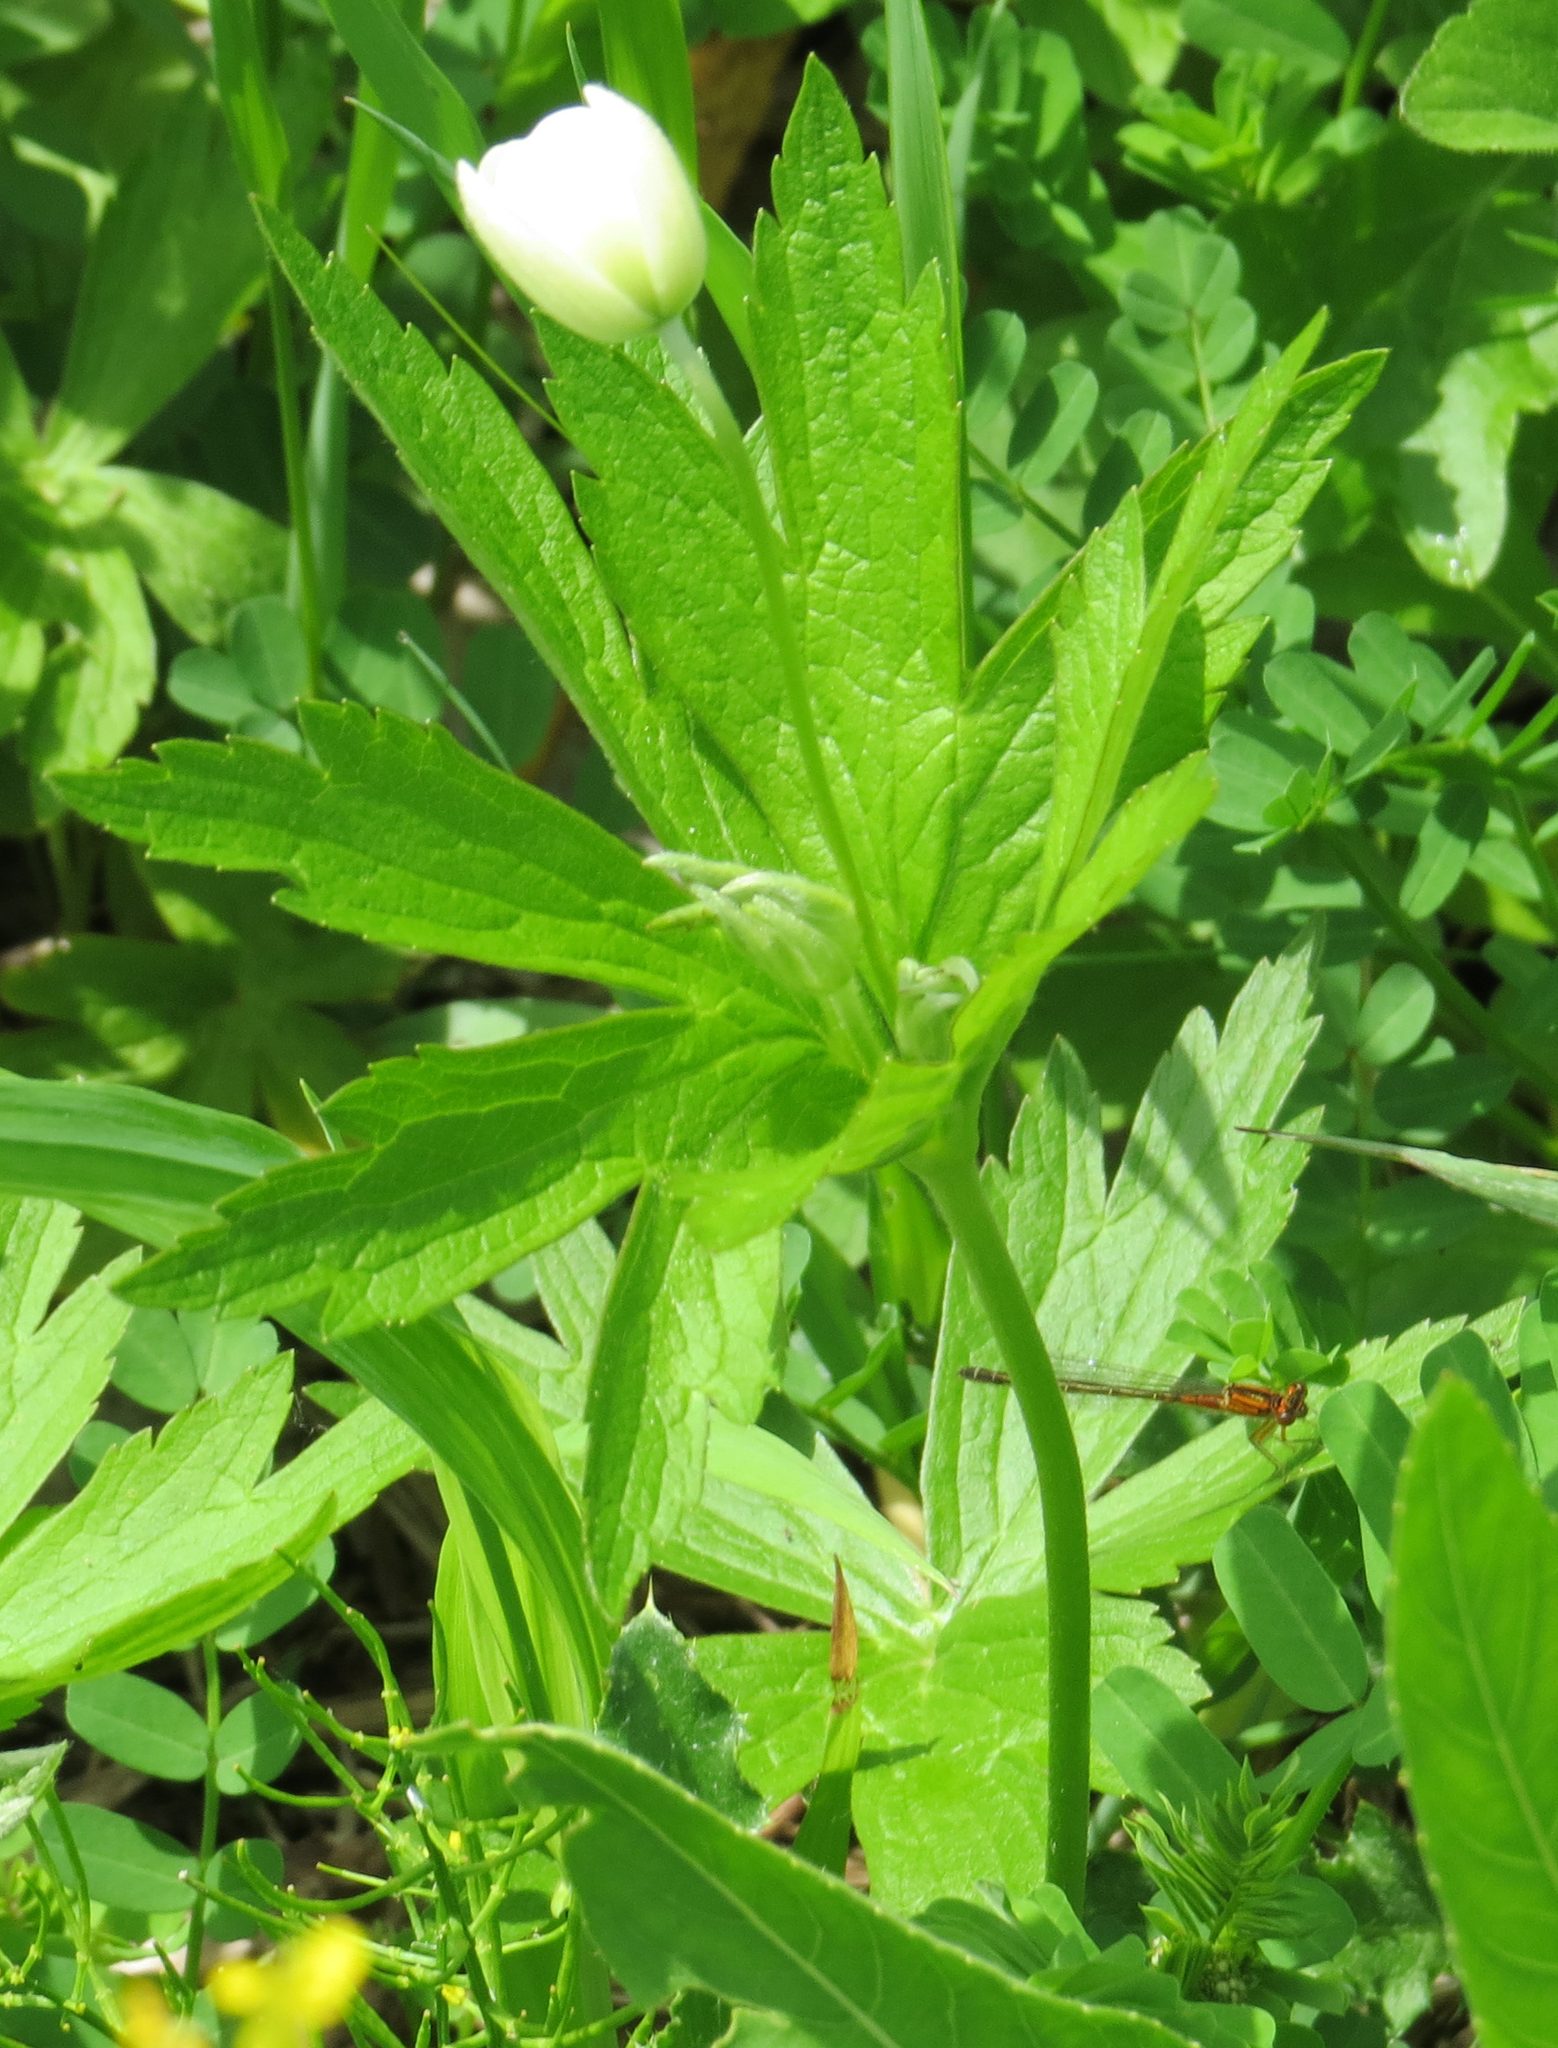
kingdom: Plantae
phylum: Tracheophyta
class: Magnoliopsida
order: Ranunculales
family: Ranunculaceae
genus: Anemonastrum
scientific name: Anemonastrum canadense
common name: Canada anemone
